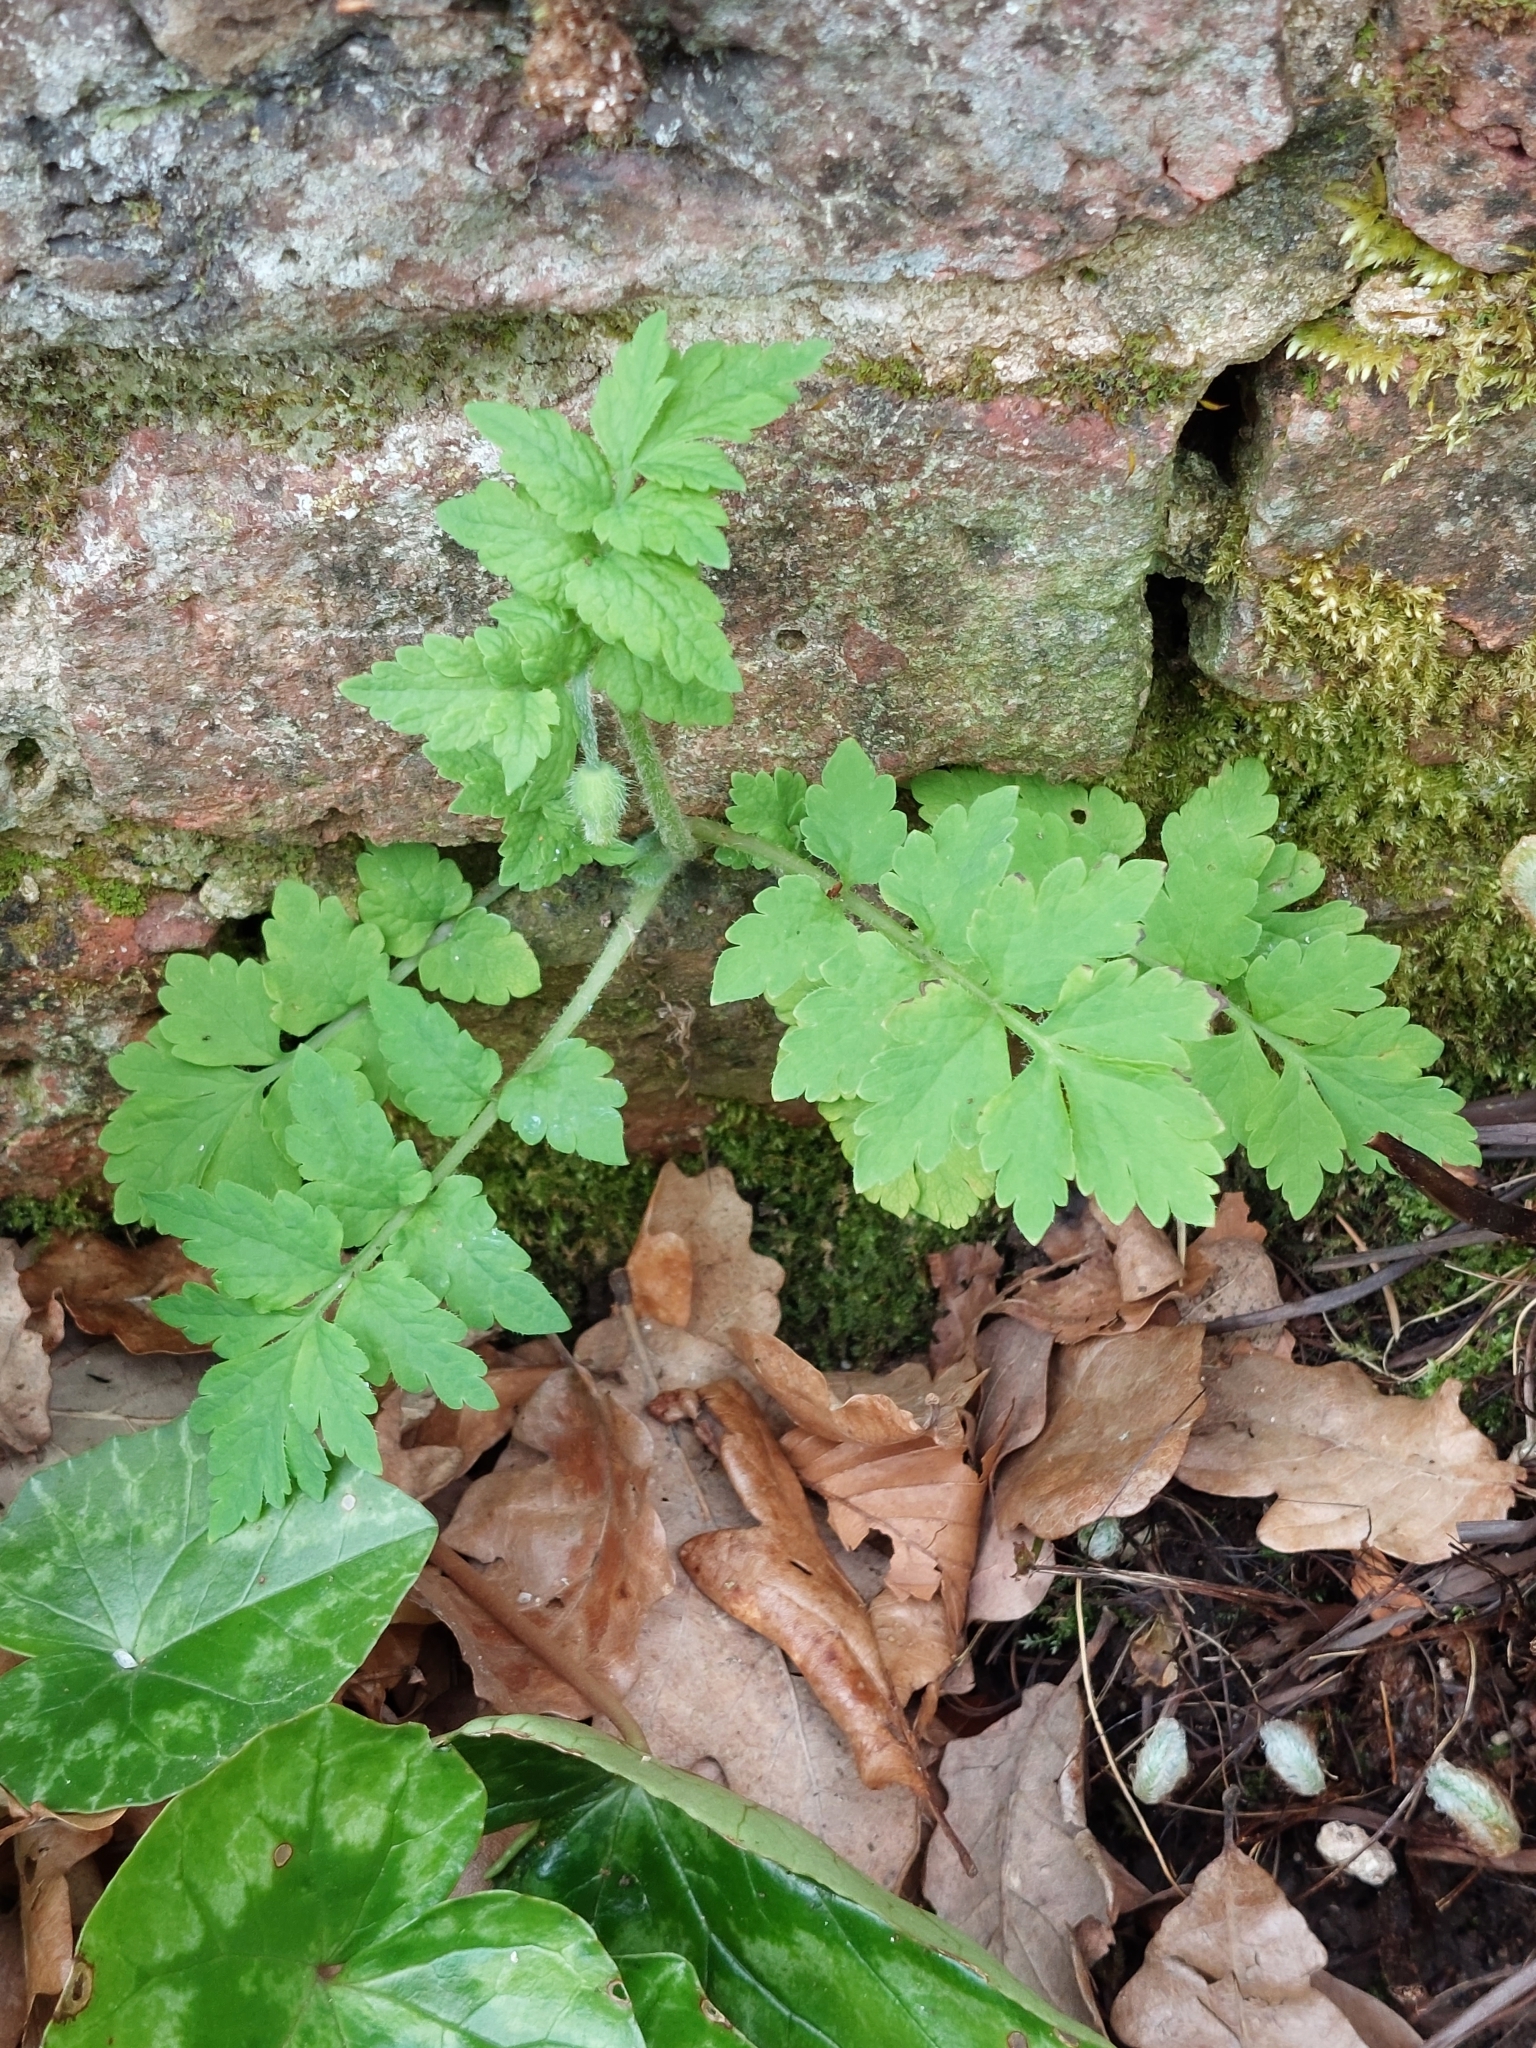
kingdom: Plantae
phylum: Tracheophyta
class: Magnoliopsida
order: Ranunculales
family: Papaveraceae
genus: Papaver
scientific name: Papaver cambricum
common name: Poppy
